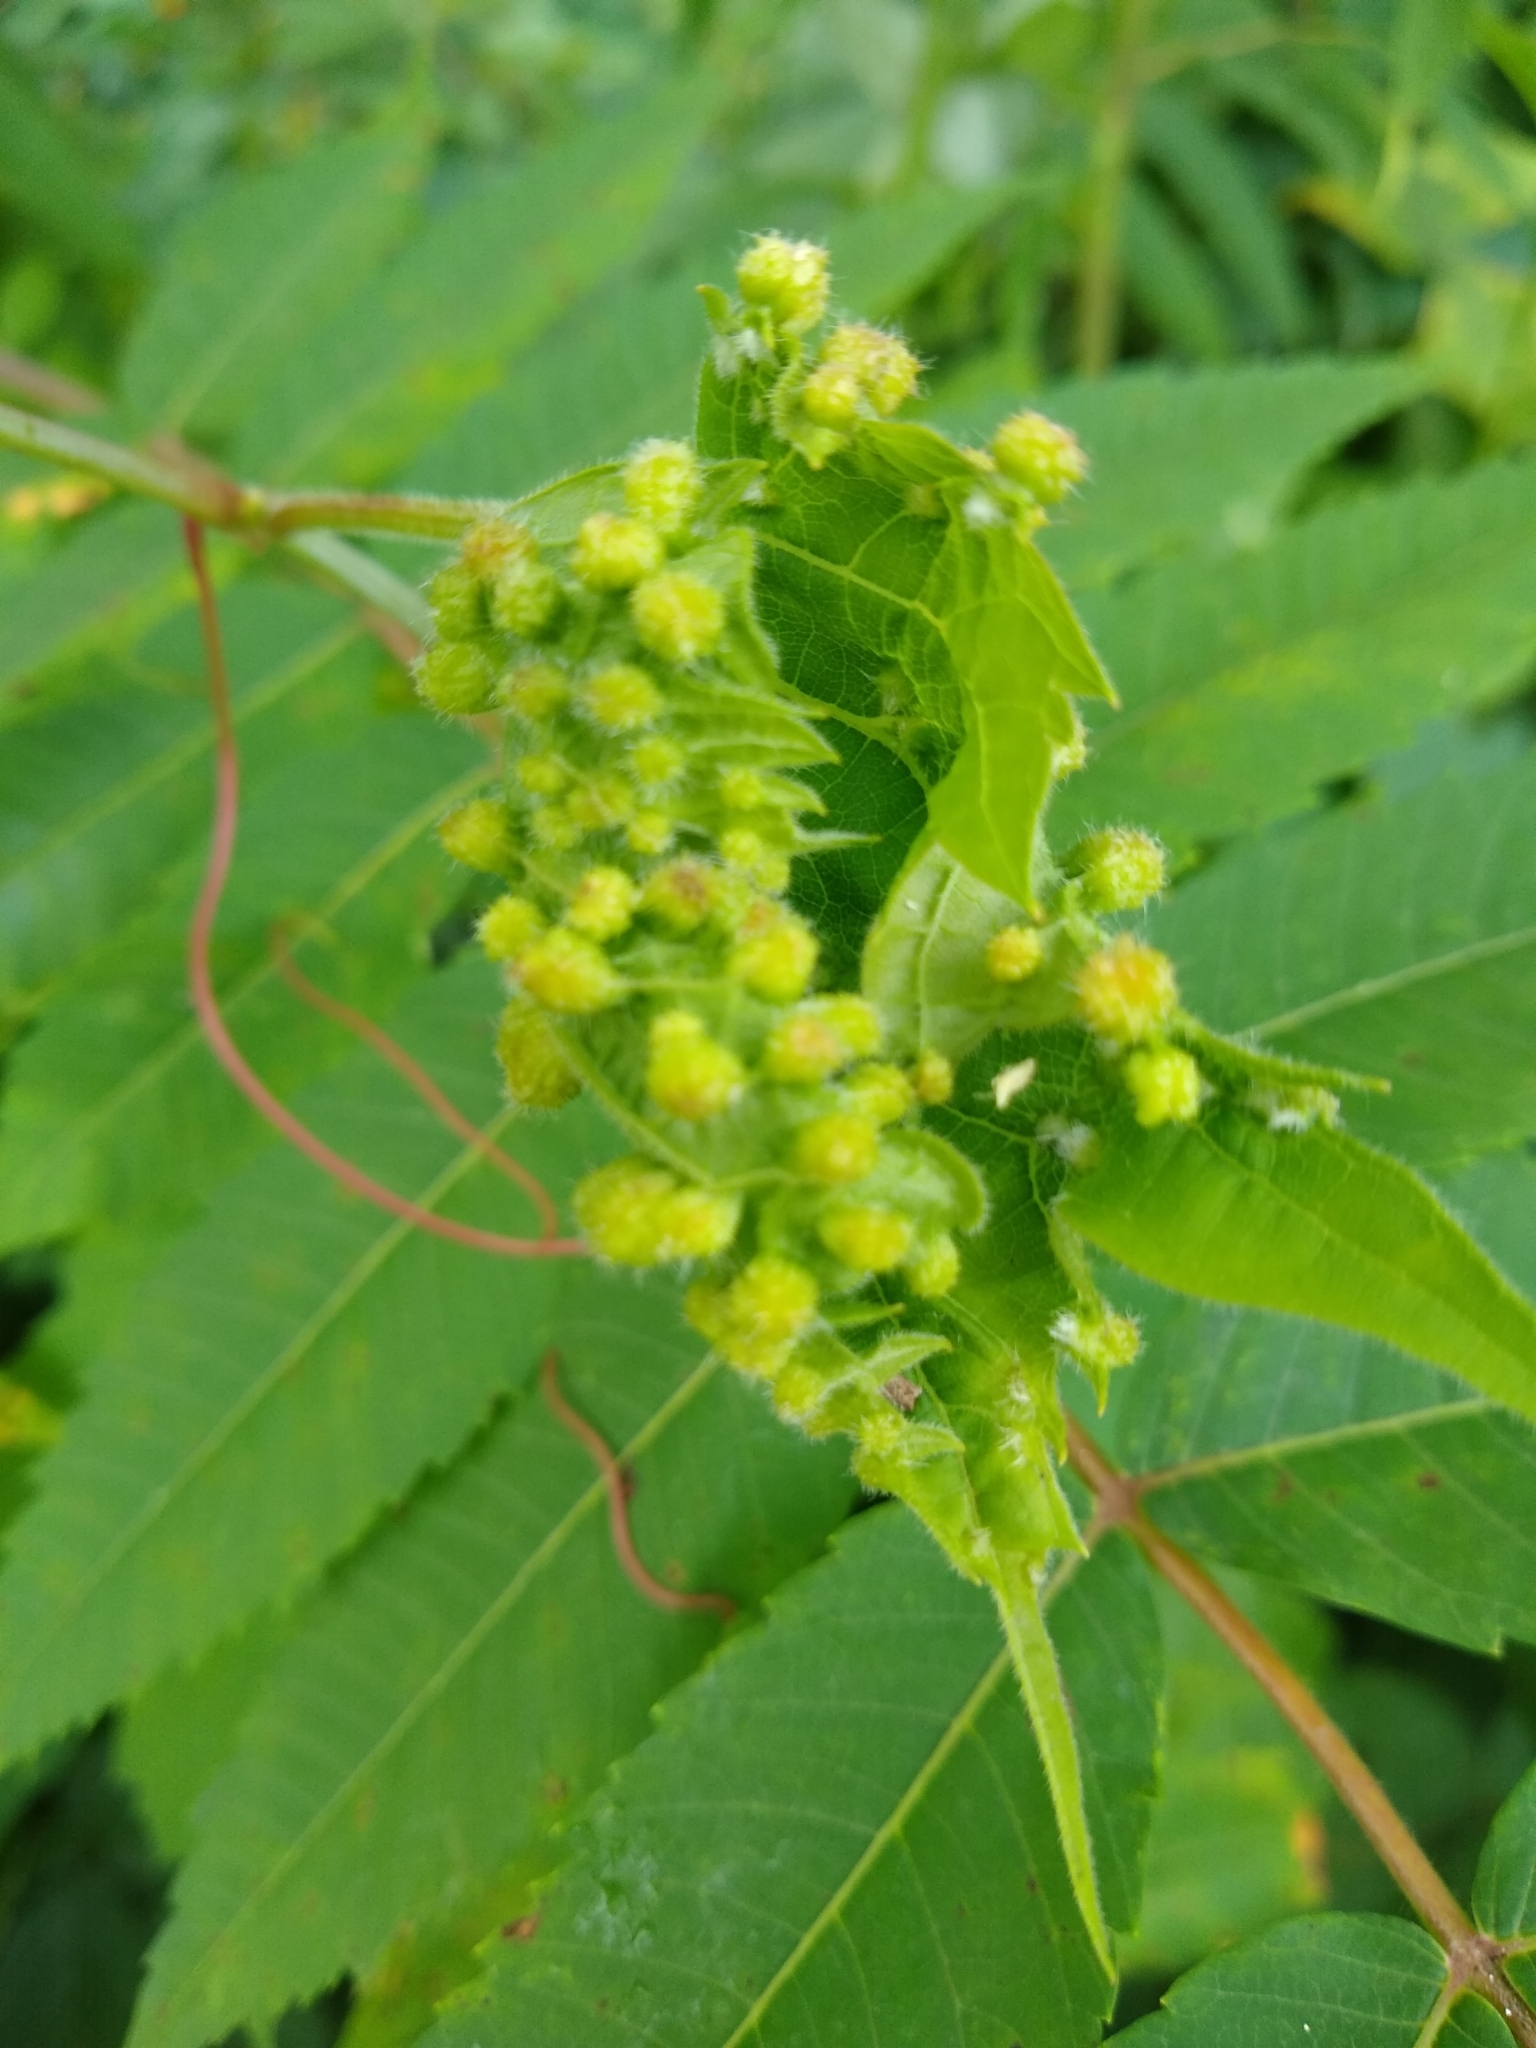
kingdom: Animalia
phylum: Arthropoda
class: Insecta
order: Hemiptera
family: Phylloxeridae
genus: Daktulosphaira
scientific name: Daktulosphaira vitifoliae
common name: Grape phylloxera
